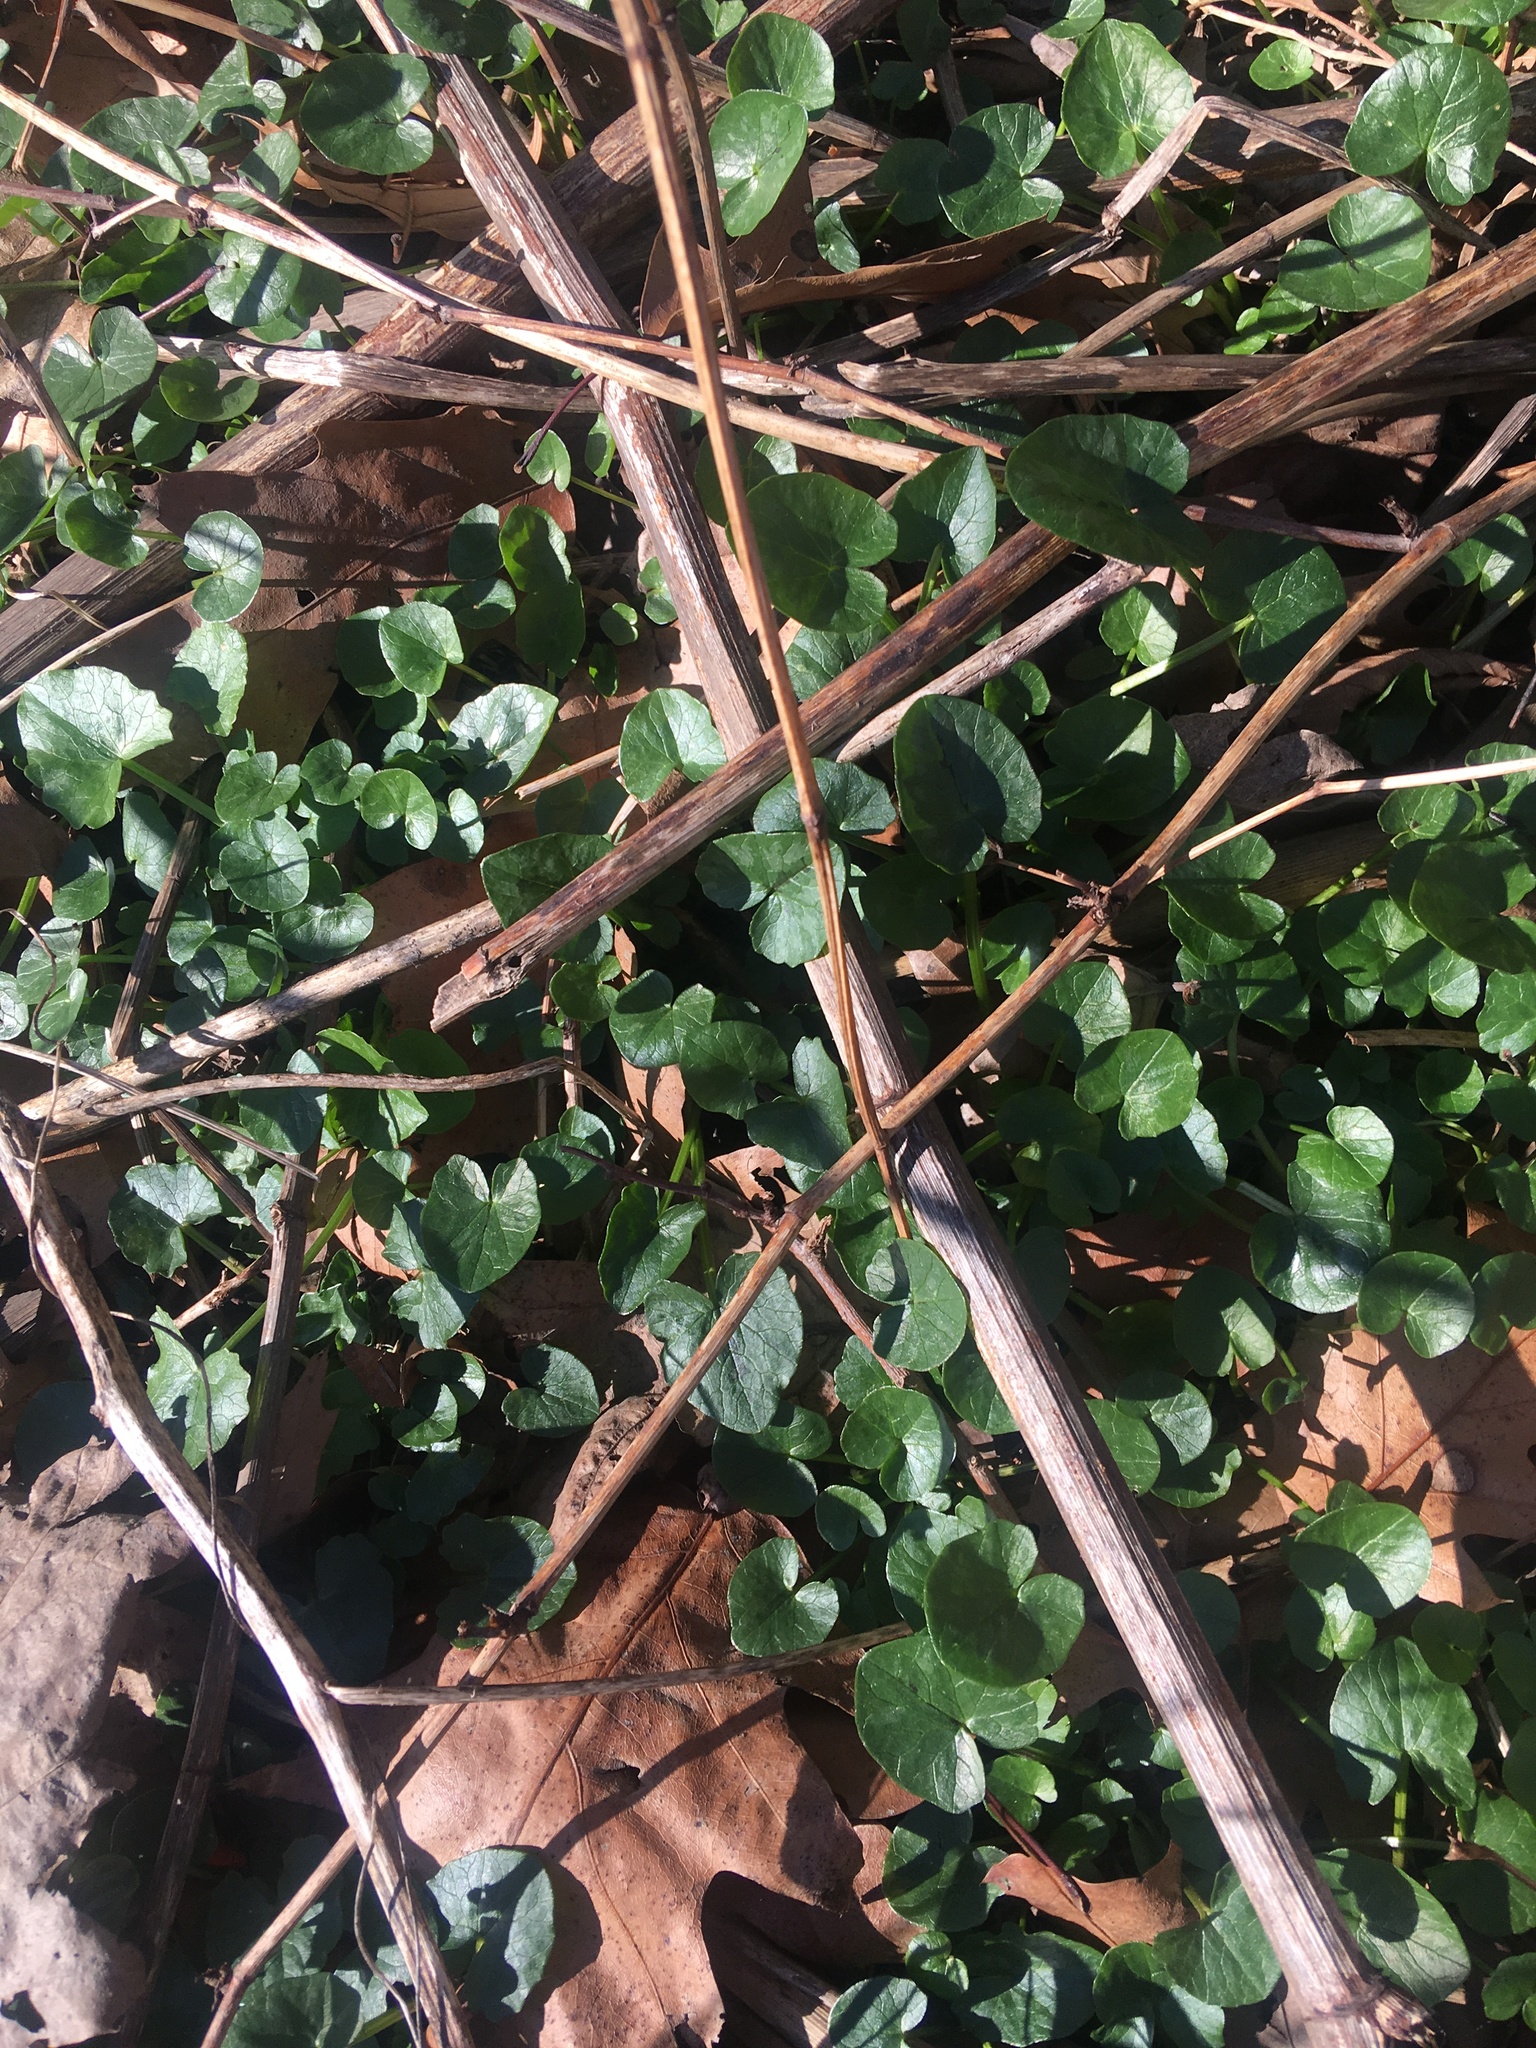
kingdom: Plantae
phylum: Tracheophyta
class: Magnoliopsida
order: Ranunculales
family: Ranunculaceae
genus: Ficaria
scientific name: Ficaria verna
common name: Lesser celandine
